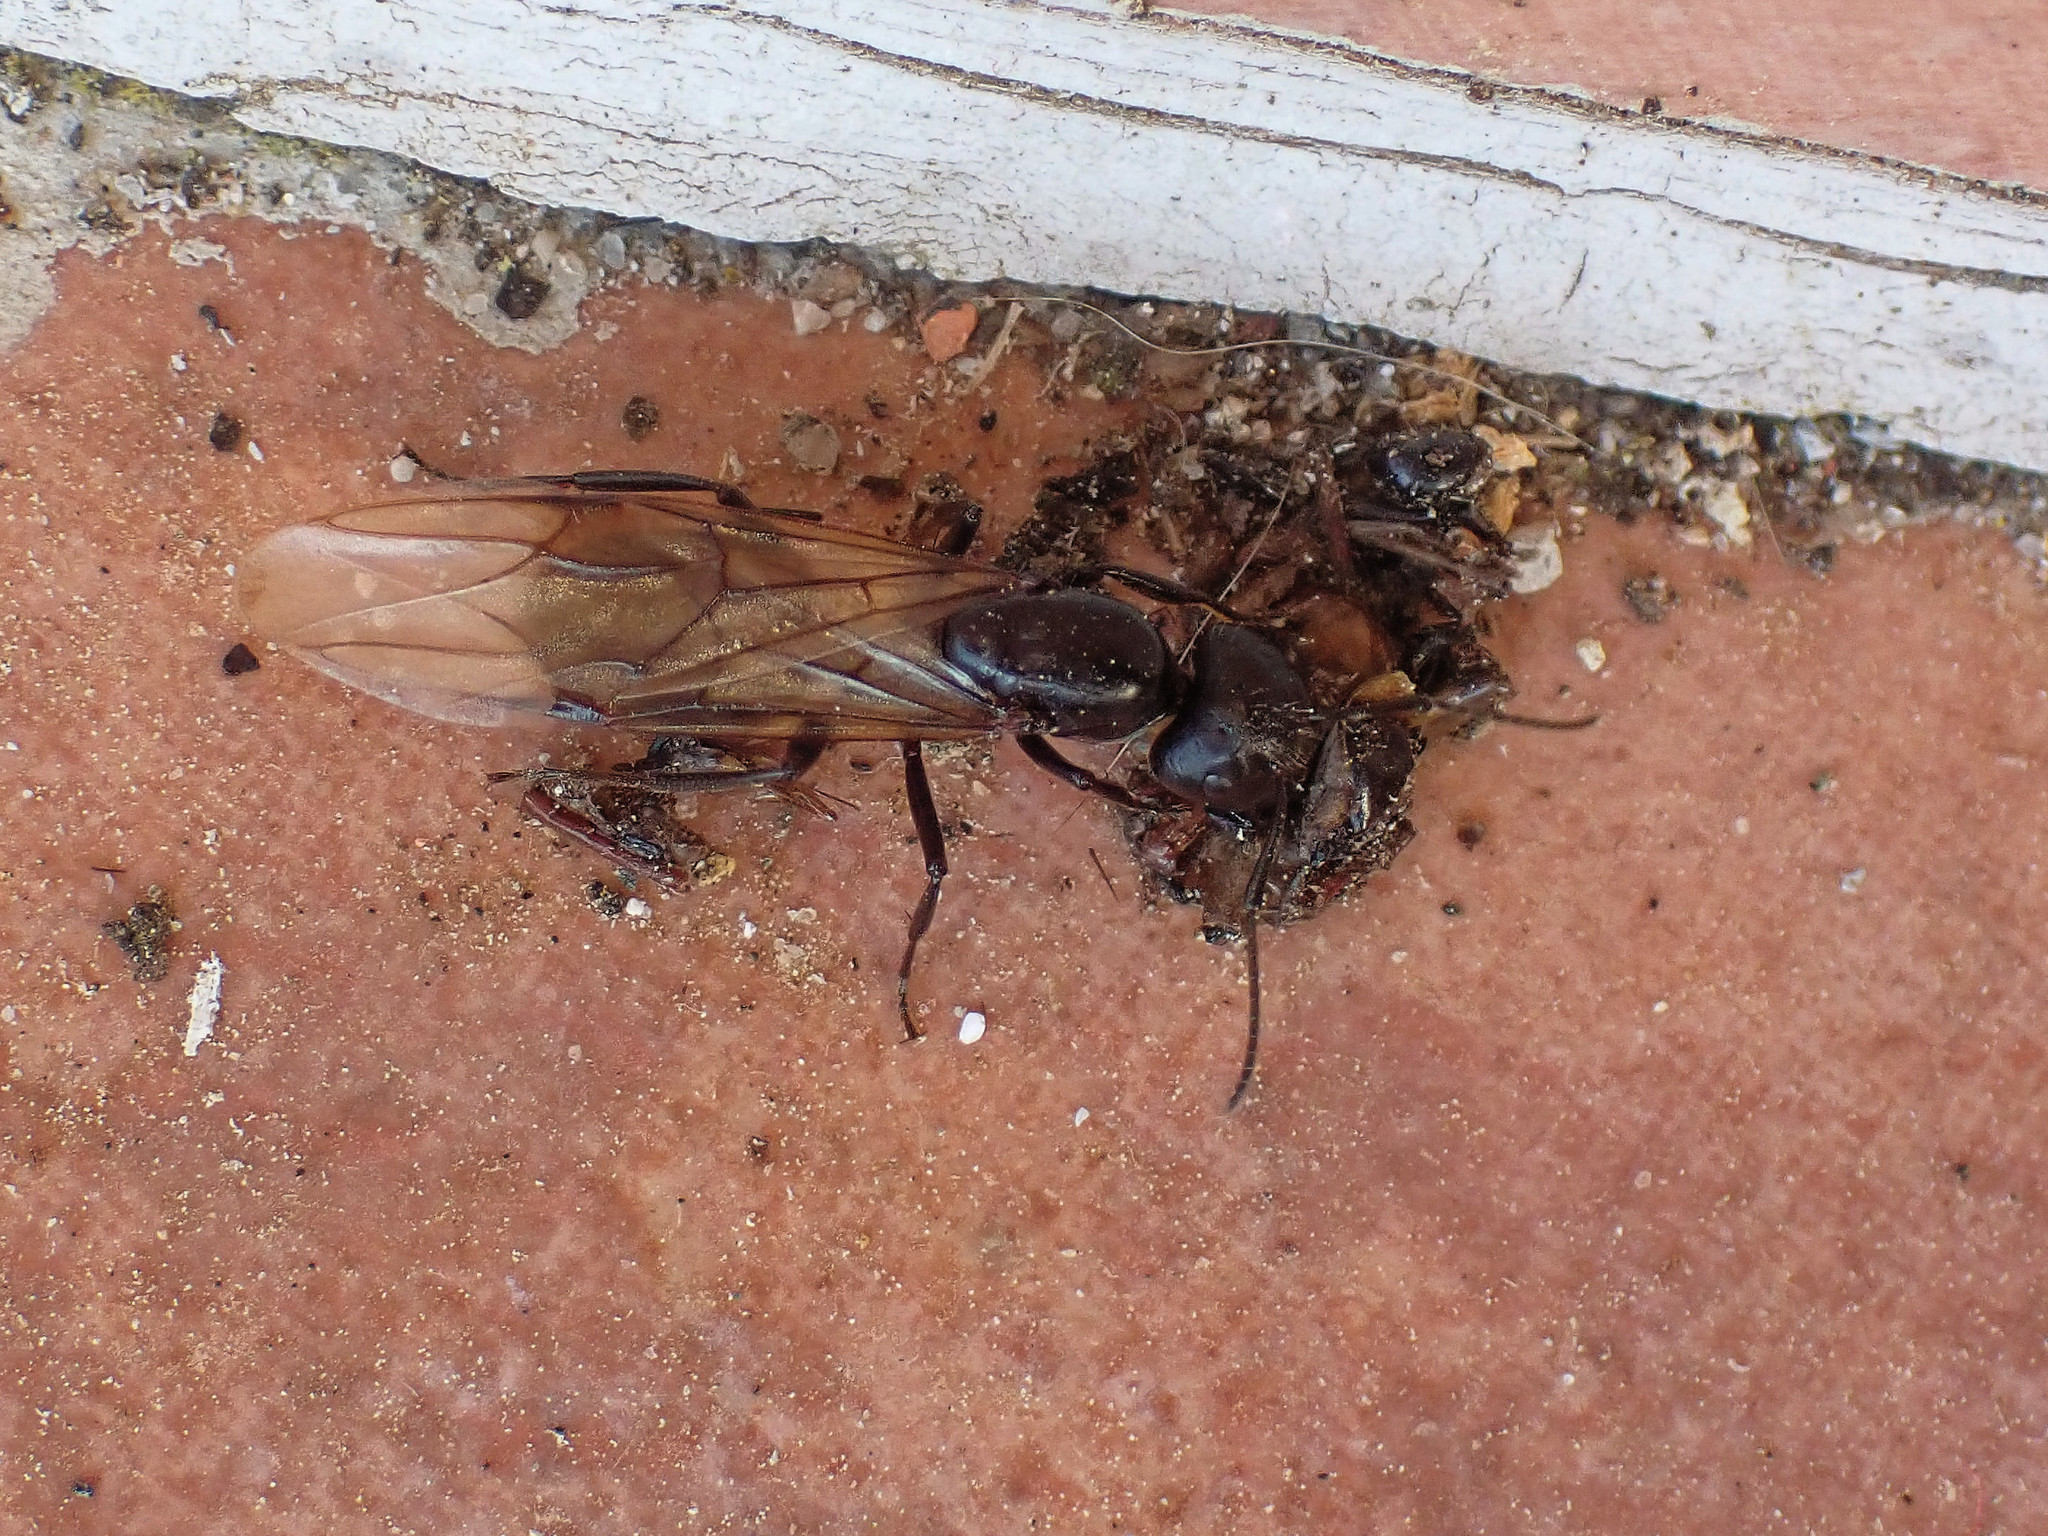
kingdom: Animalia
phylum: Arthropoda
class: Insecta
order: Hymenoptera
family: Formicidae
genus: Camponotus
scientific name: Camponotus vagus
